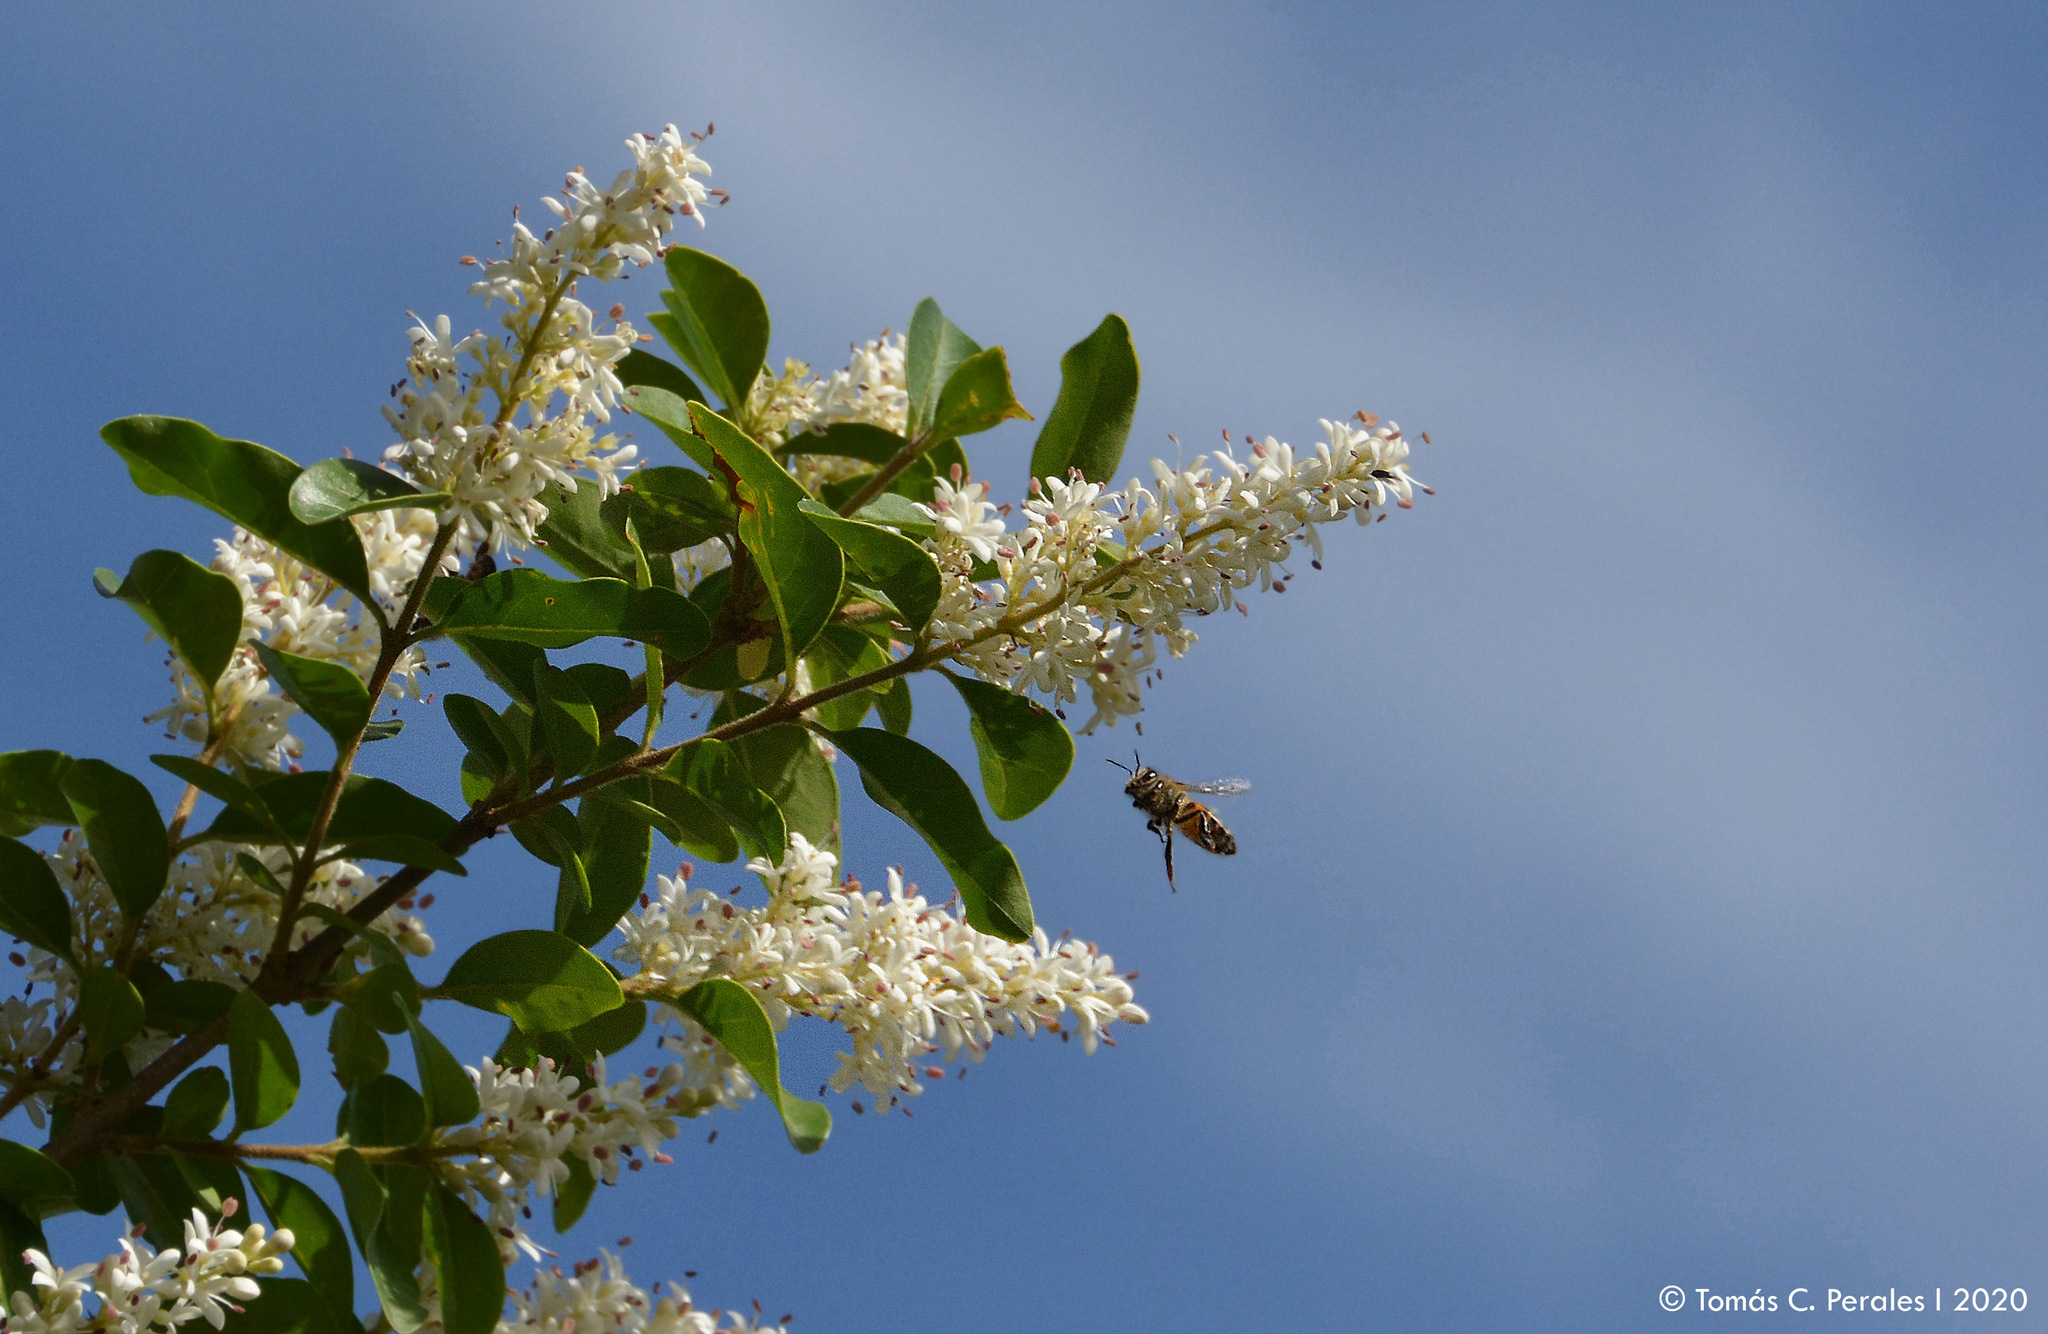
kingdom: Animalia
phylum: Arthropoda
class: Insecta
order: Hymenoptera
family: Apidae
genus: Apis
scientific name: Apis mellifera
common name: Honey bee
